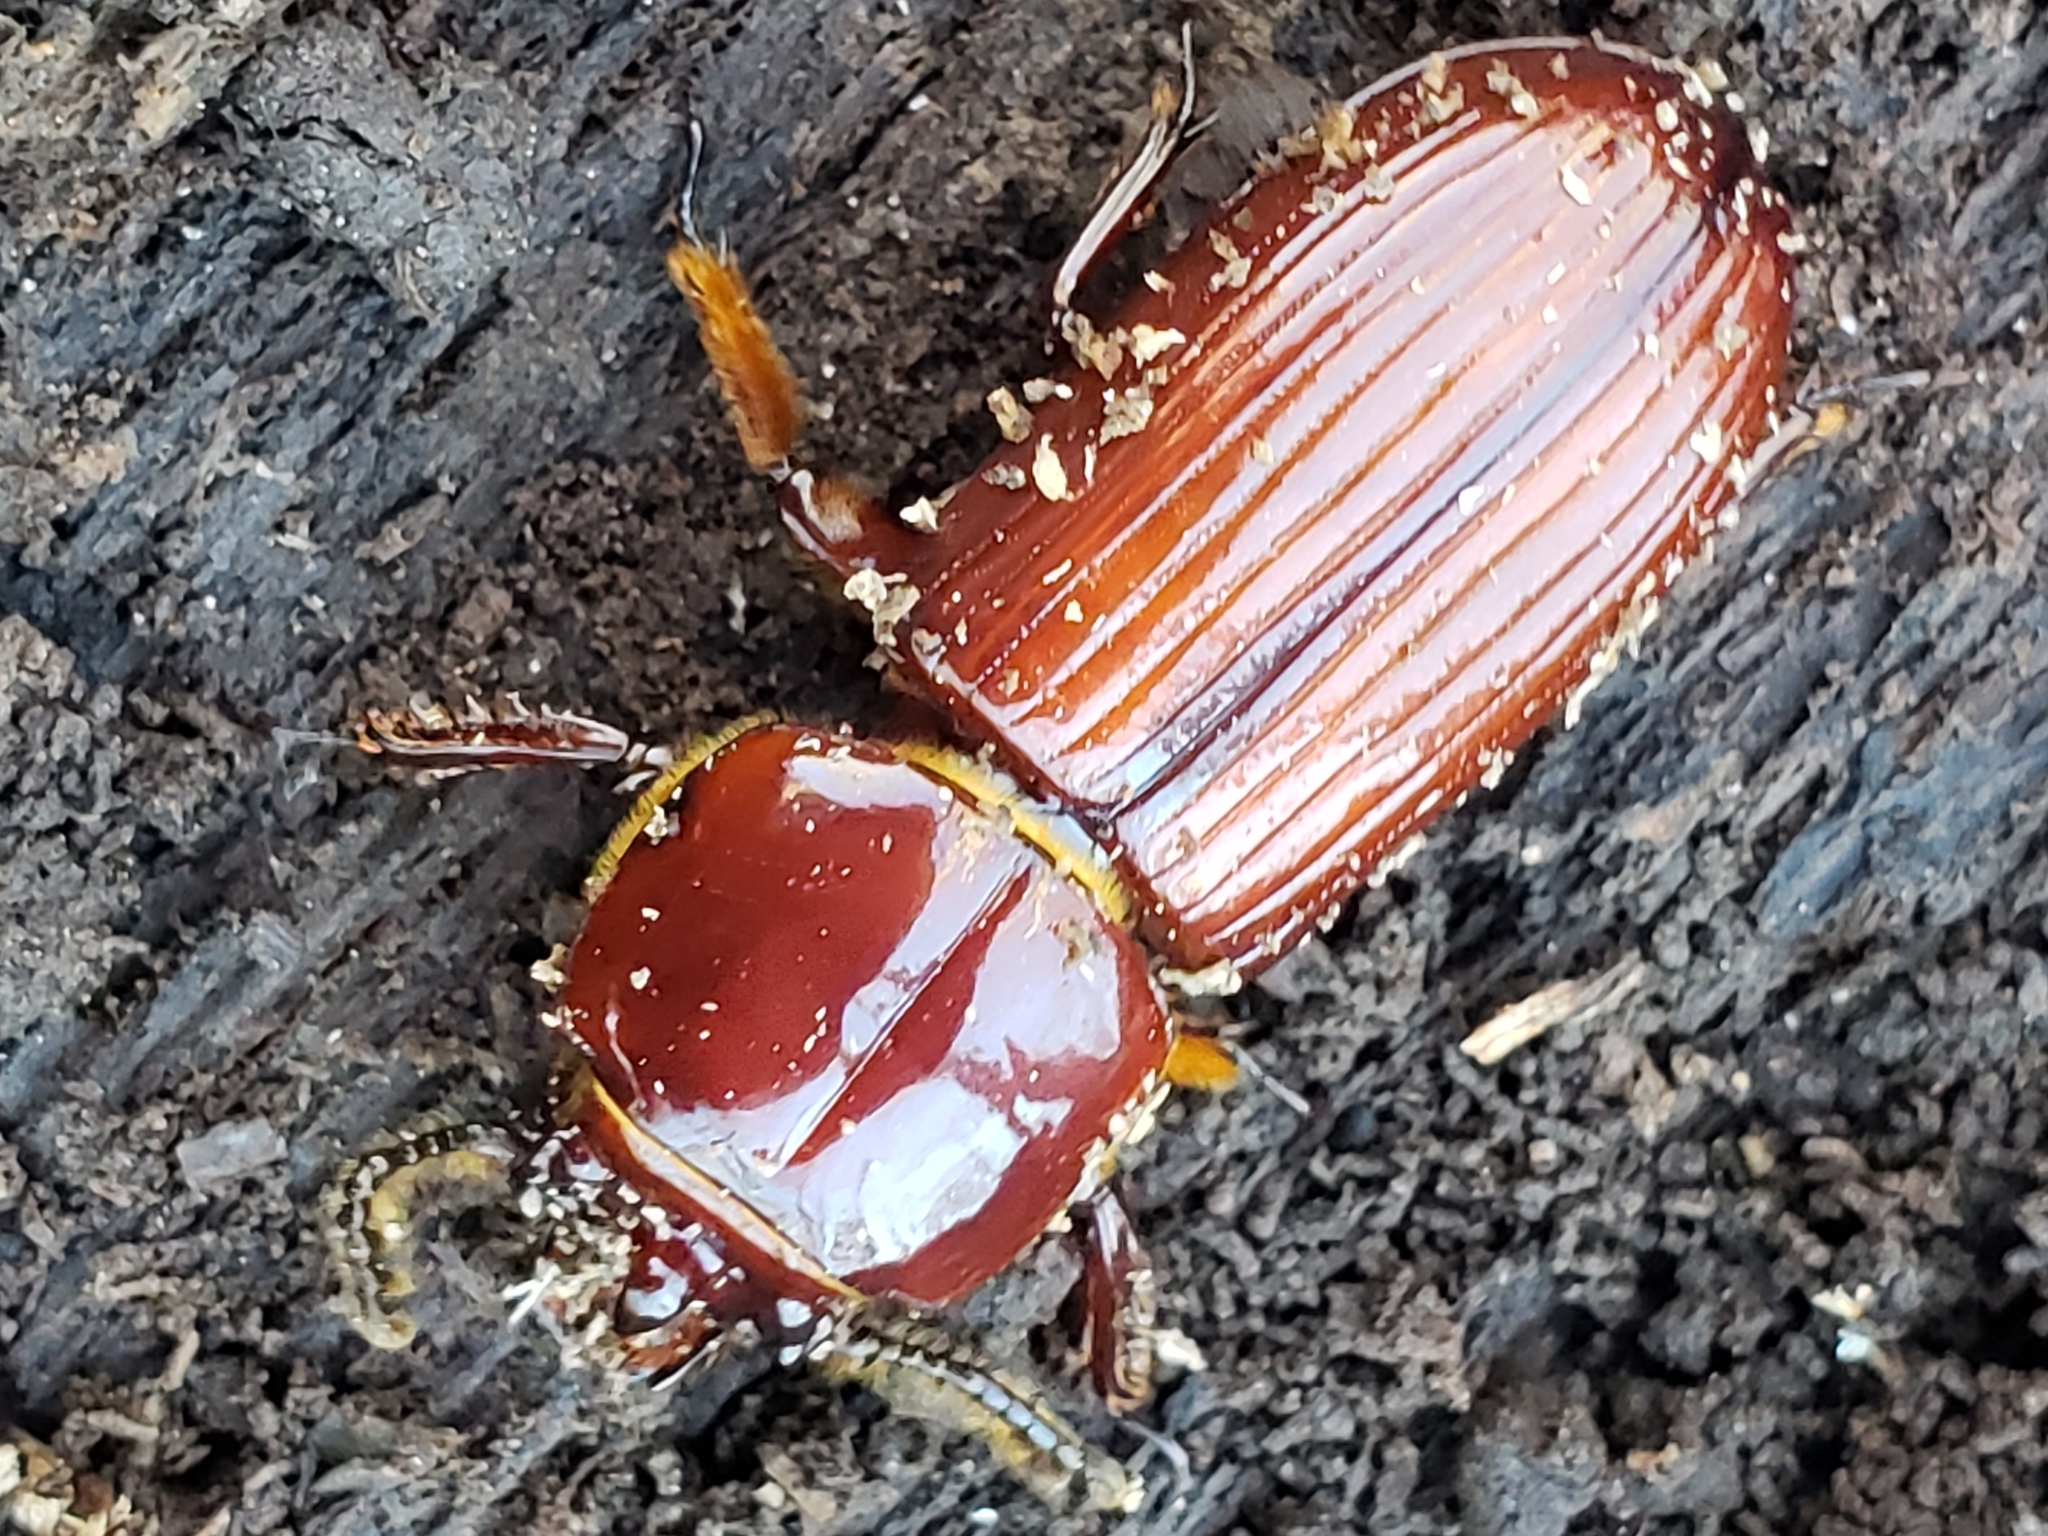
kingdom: Animalia
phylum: Arthropoda
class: Insecta
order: Coleoptera
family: Passalidae
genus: Odontotaenius
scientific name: Odontotaenius disjunctus
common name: Patent leather beetle
